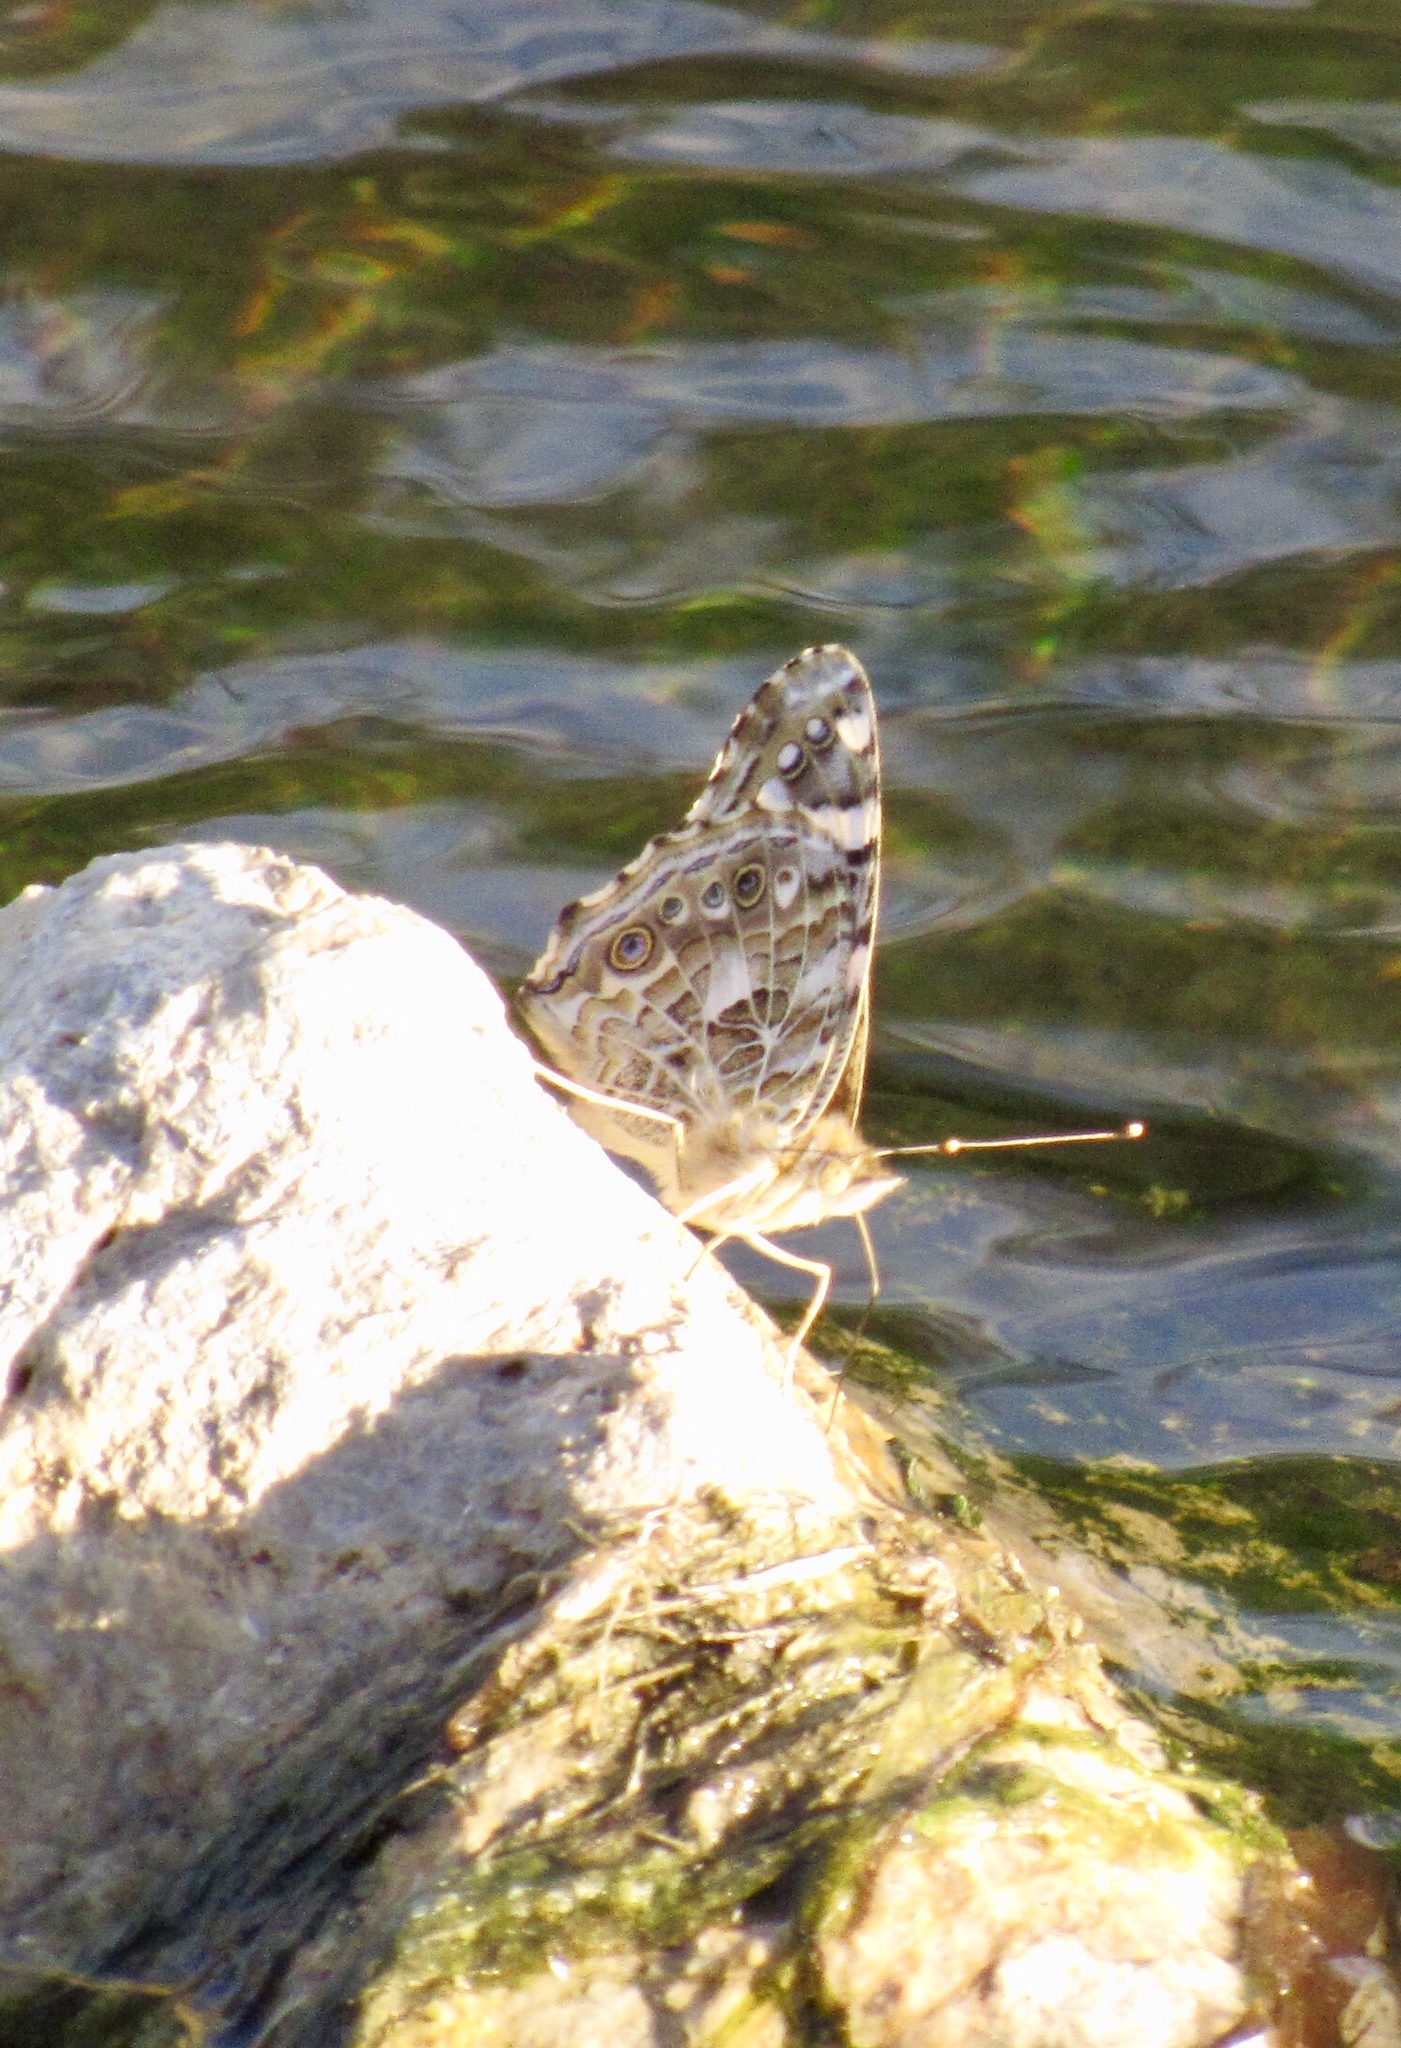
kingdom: Animalia
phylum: Arthropoda
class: Insecta
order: Lepidoptera
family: Nymphalidae
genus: Vanessa
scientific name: Vanessa cardui
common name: Painted lady
